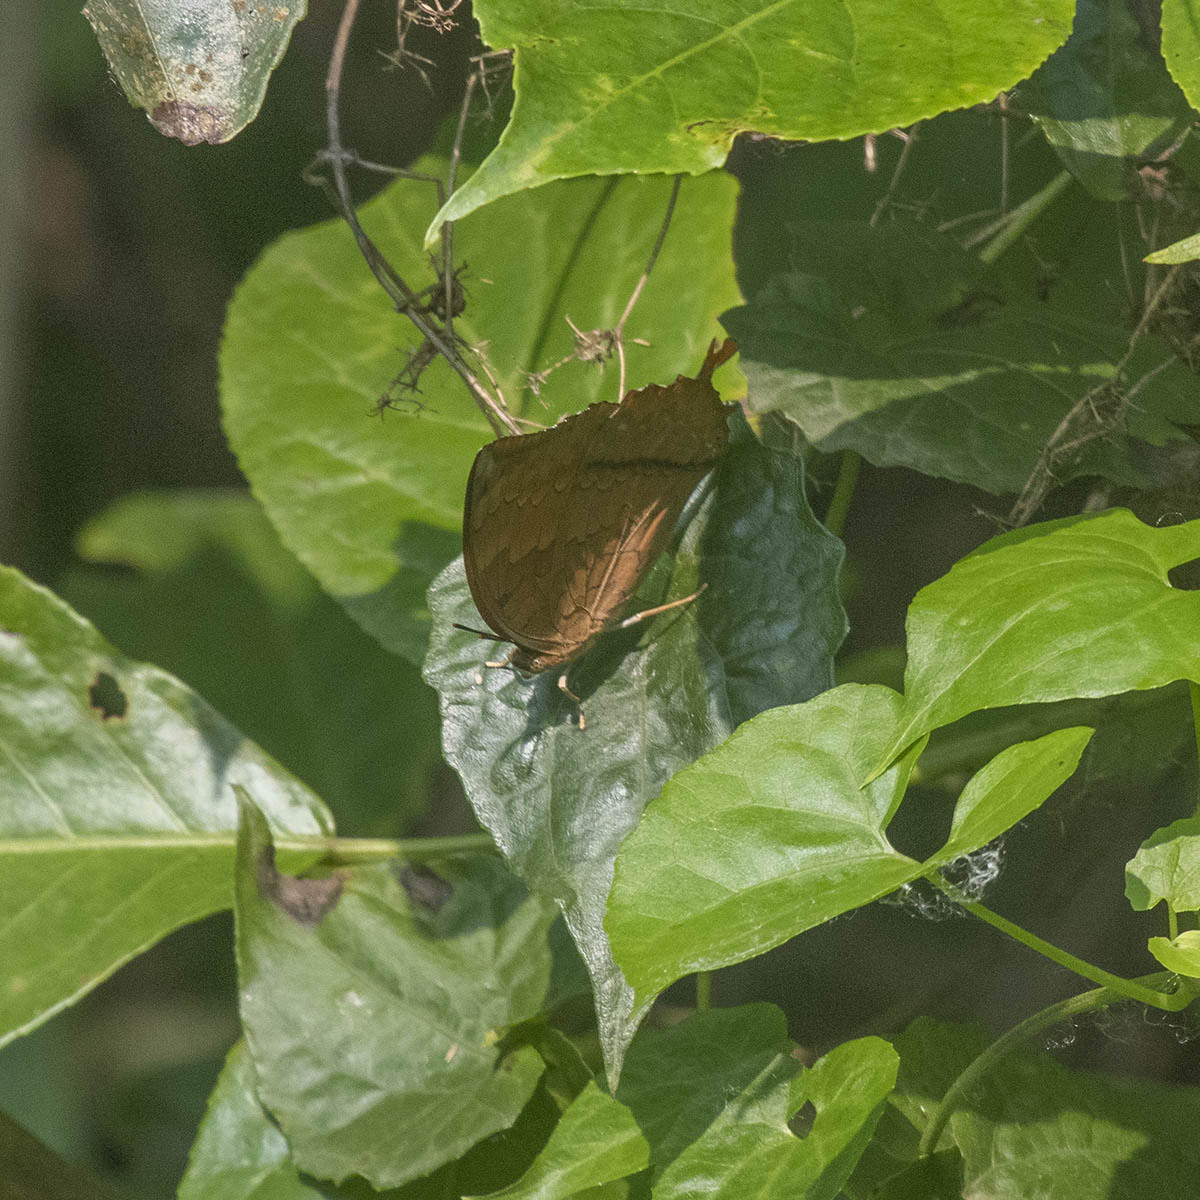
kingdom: Animalia
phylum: Arthropoda
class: Insecta
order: Lepidoptera
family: Nymphalidae
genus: Charaxes
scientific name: Charaxes bernardus
